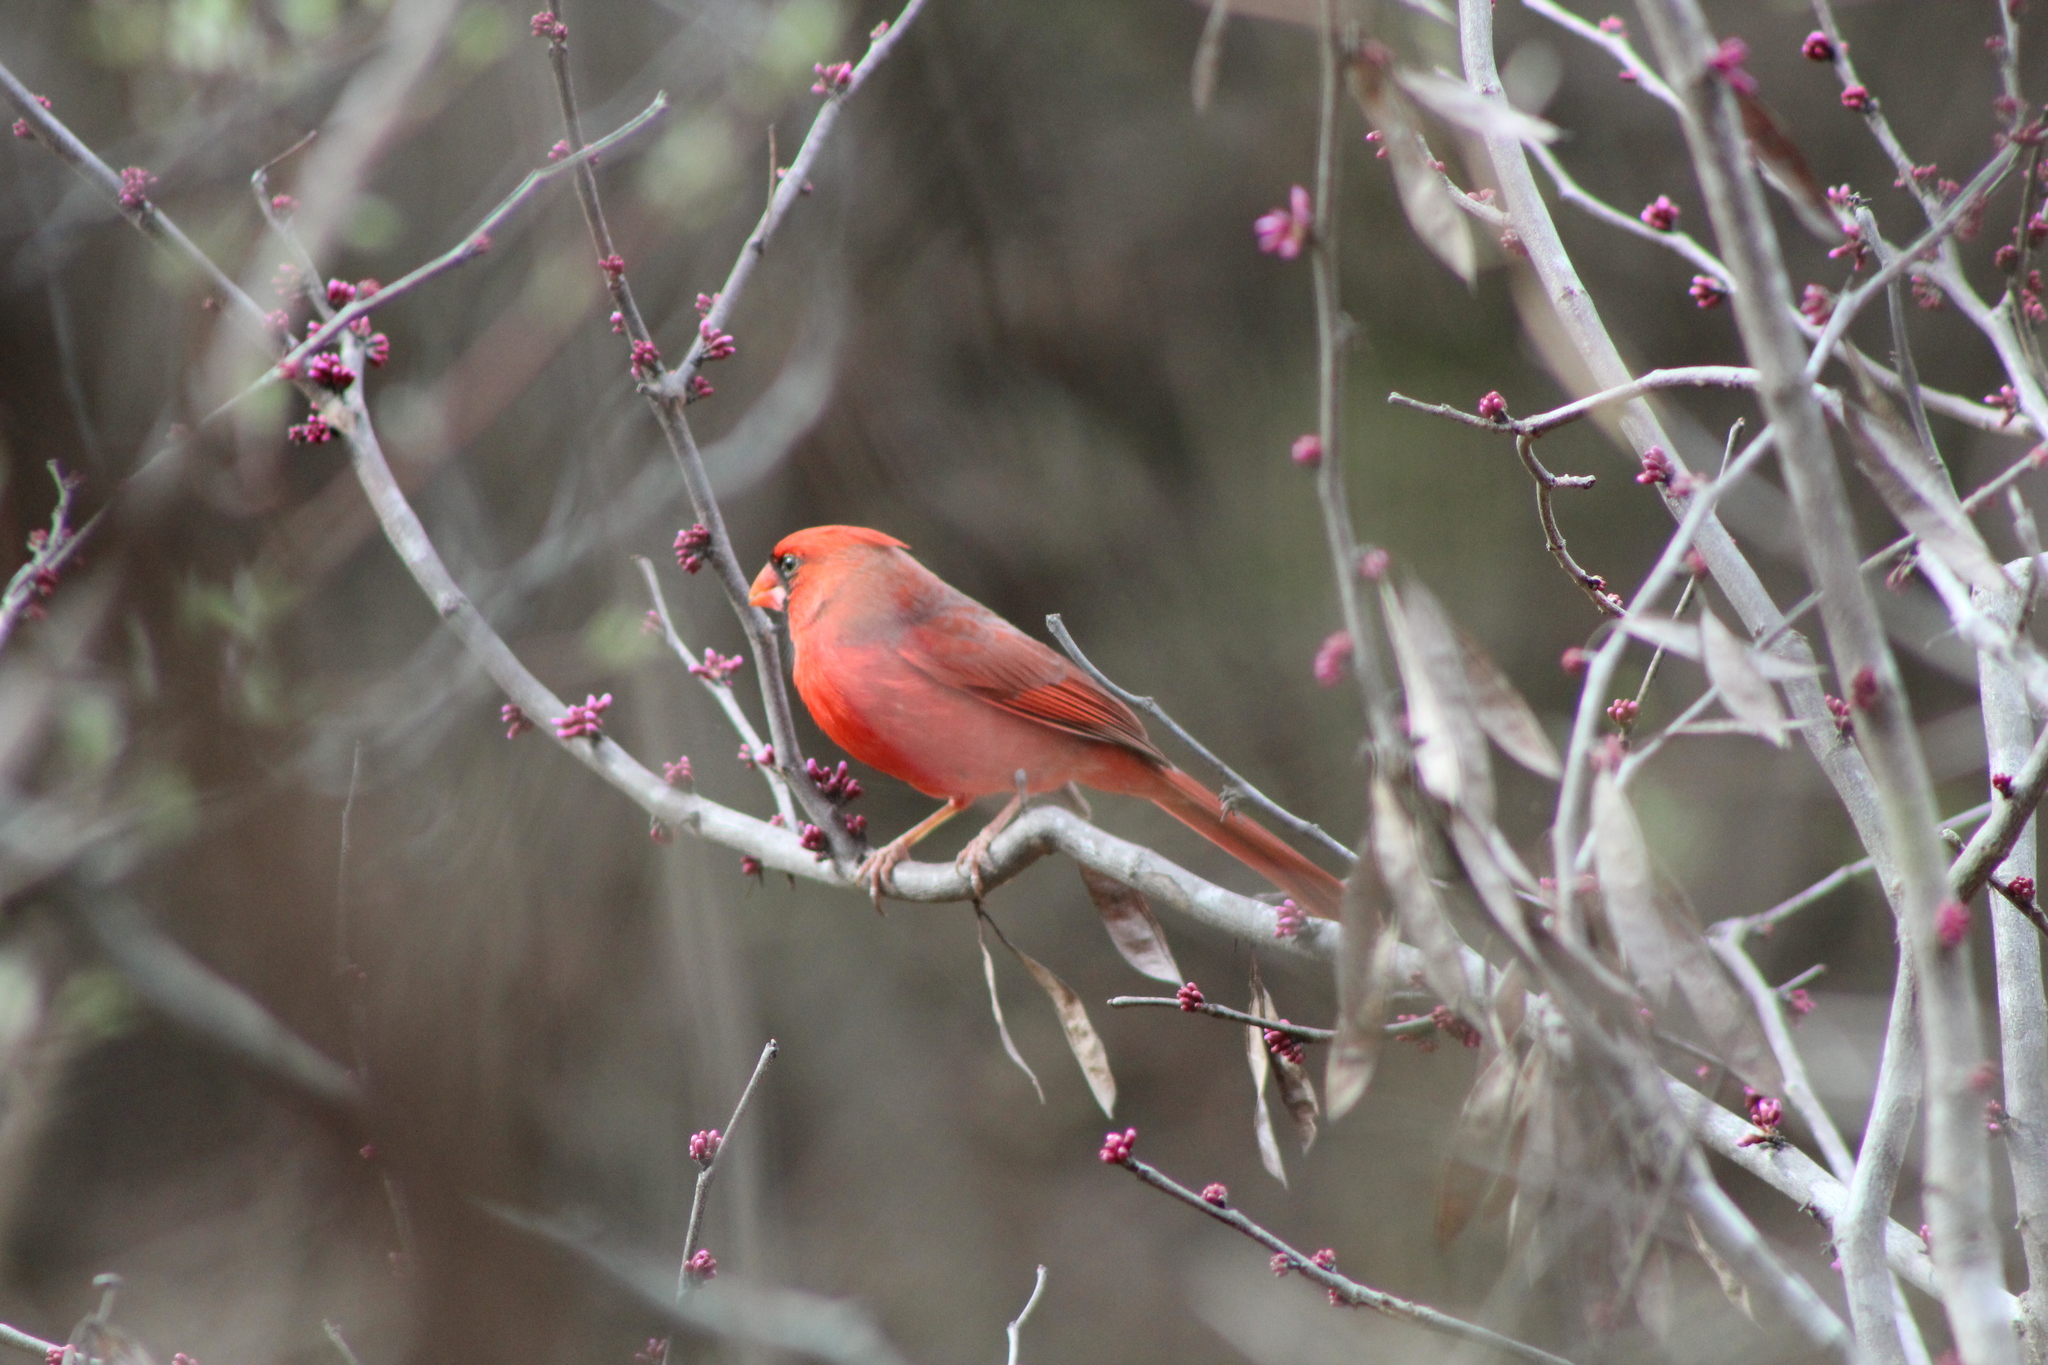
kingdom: Animalia
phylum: Chordata
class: Aves
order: Passeriformes
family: Cardinalidae
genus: Cardinalis
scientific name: Cardinalis cardinalis
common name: Northern cardinal
